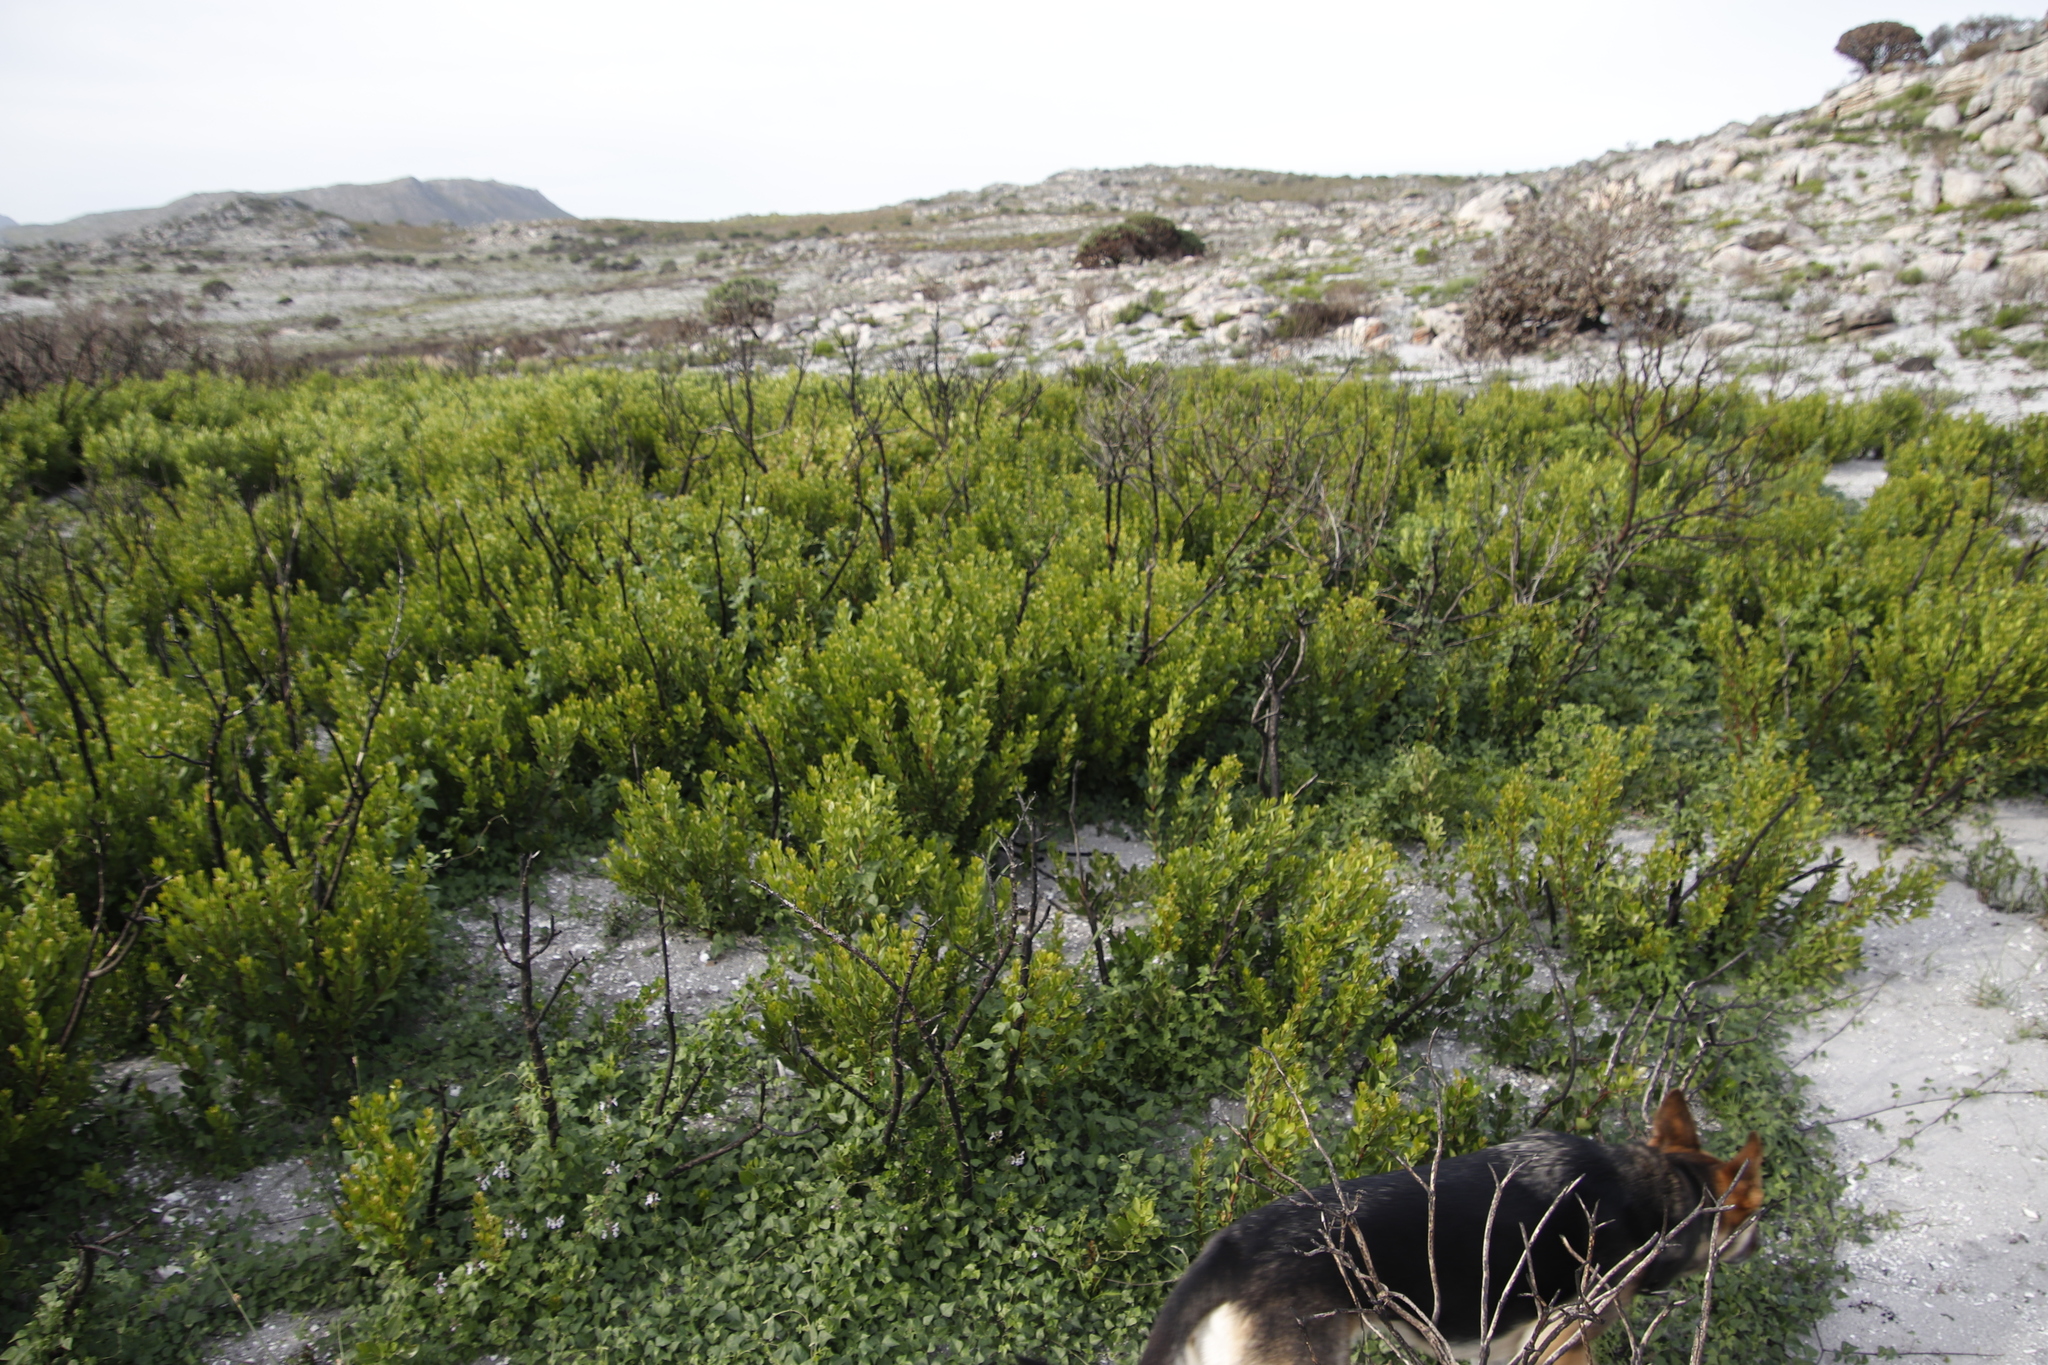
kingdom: Plantae
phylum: Tracheophyta
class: Magnoliopsida
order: Fabales
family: Fabaceae
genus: Dipogon
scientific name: Dipogon lignosus
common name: Okie bean
